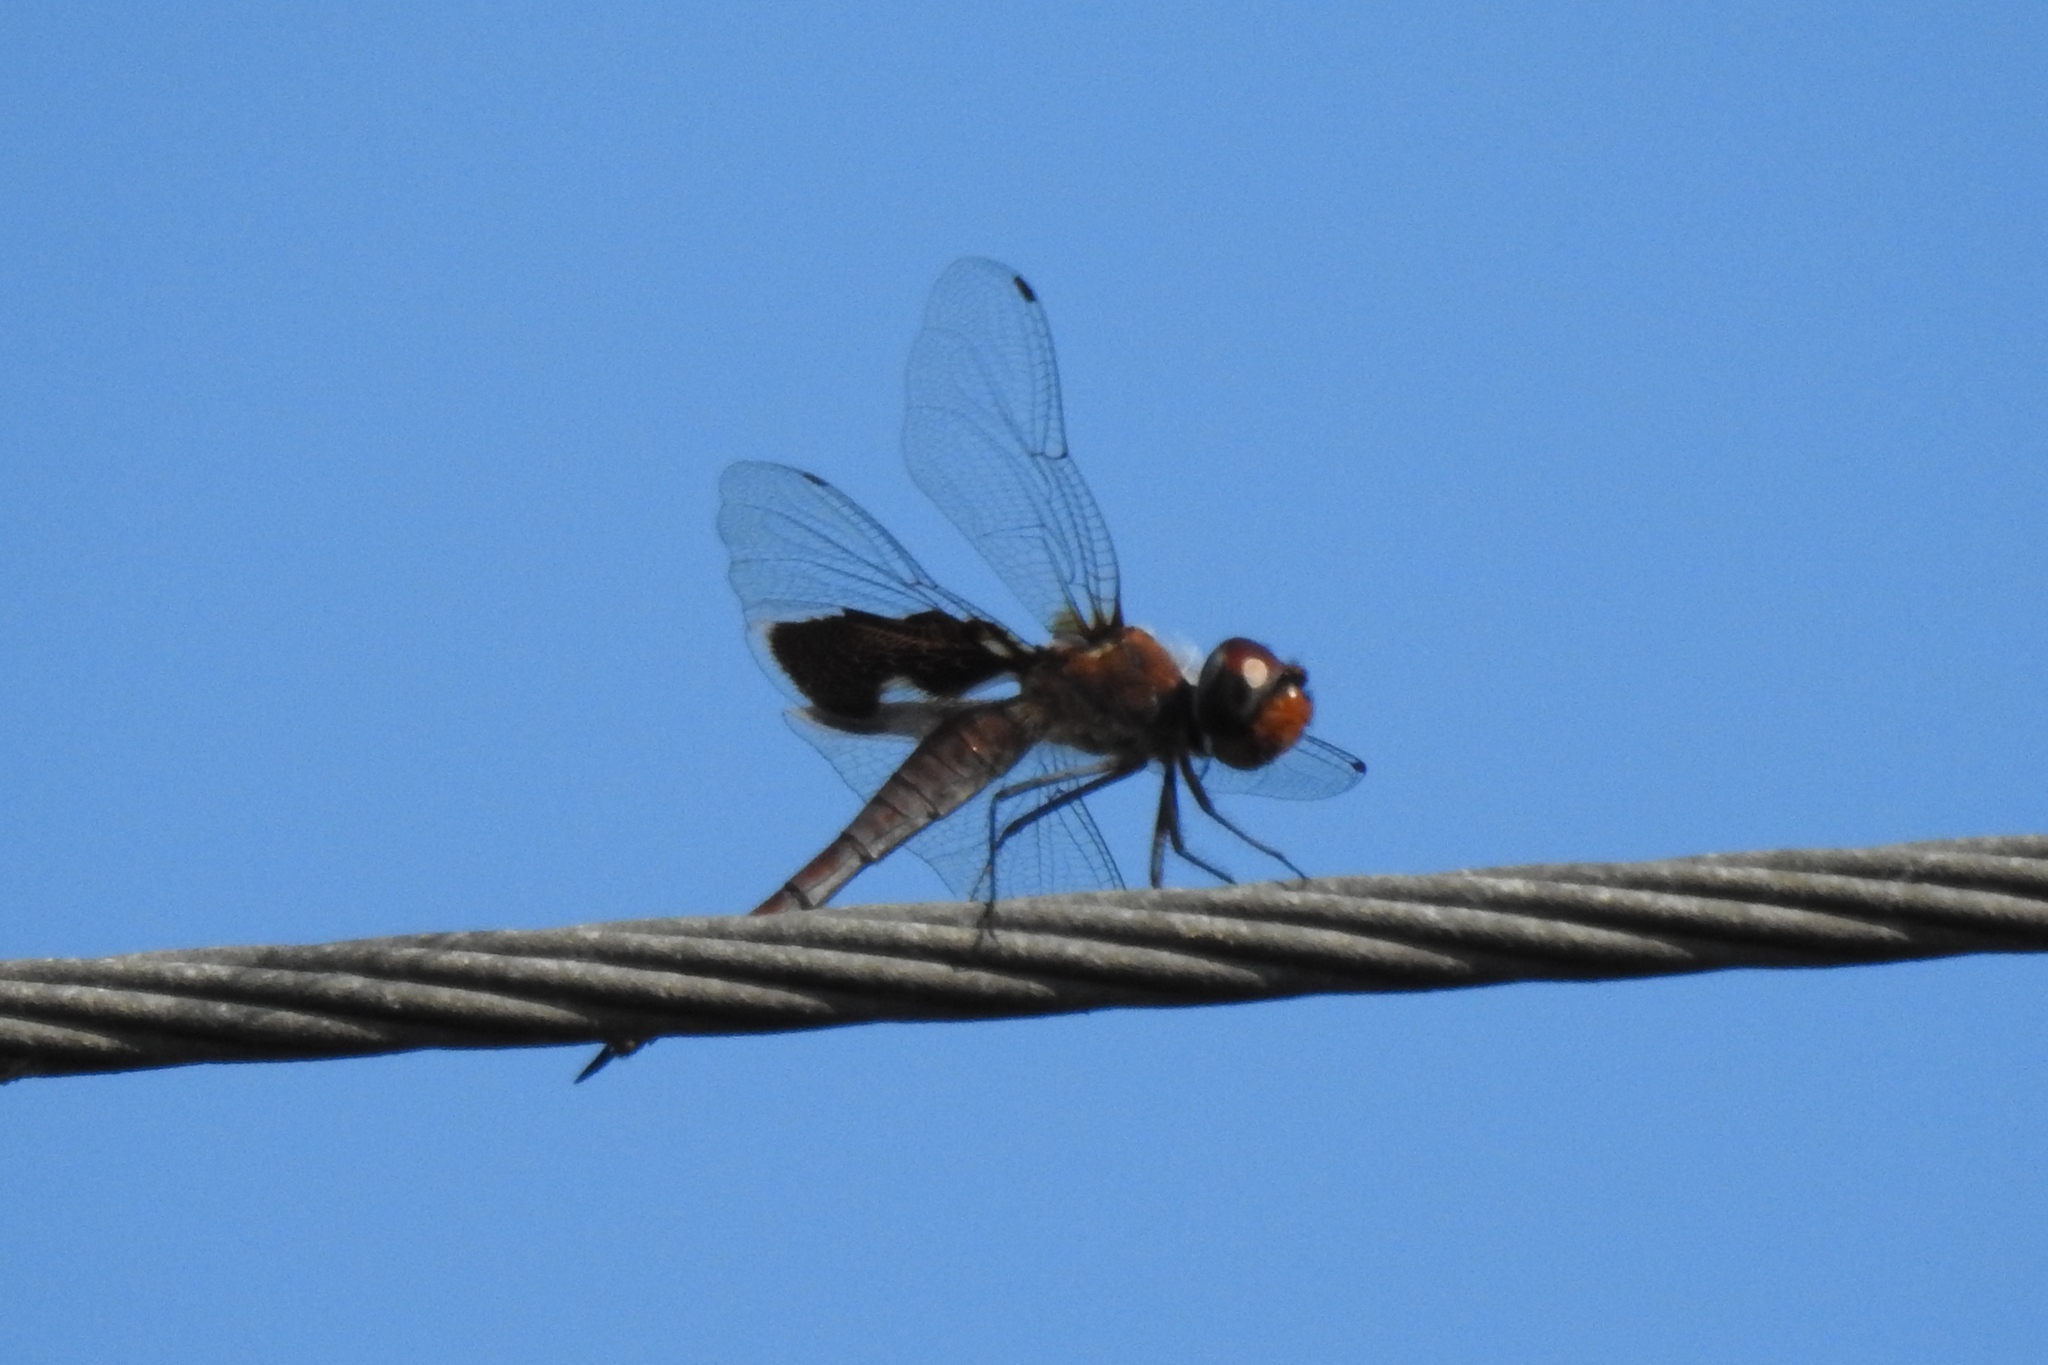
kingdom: Animalia
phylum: Arthropoda
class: Insecta
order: Odonata
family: Libellulidae
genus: Tramea
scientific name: Tramea lacerata
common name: Black saddlebags
